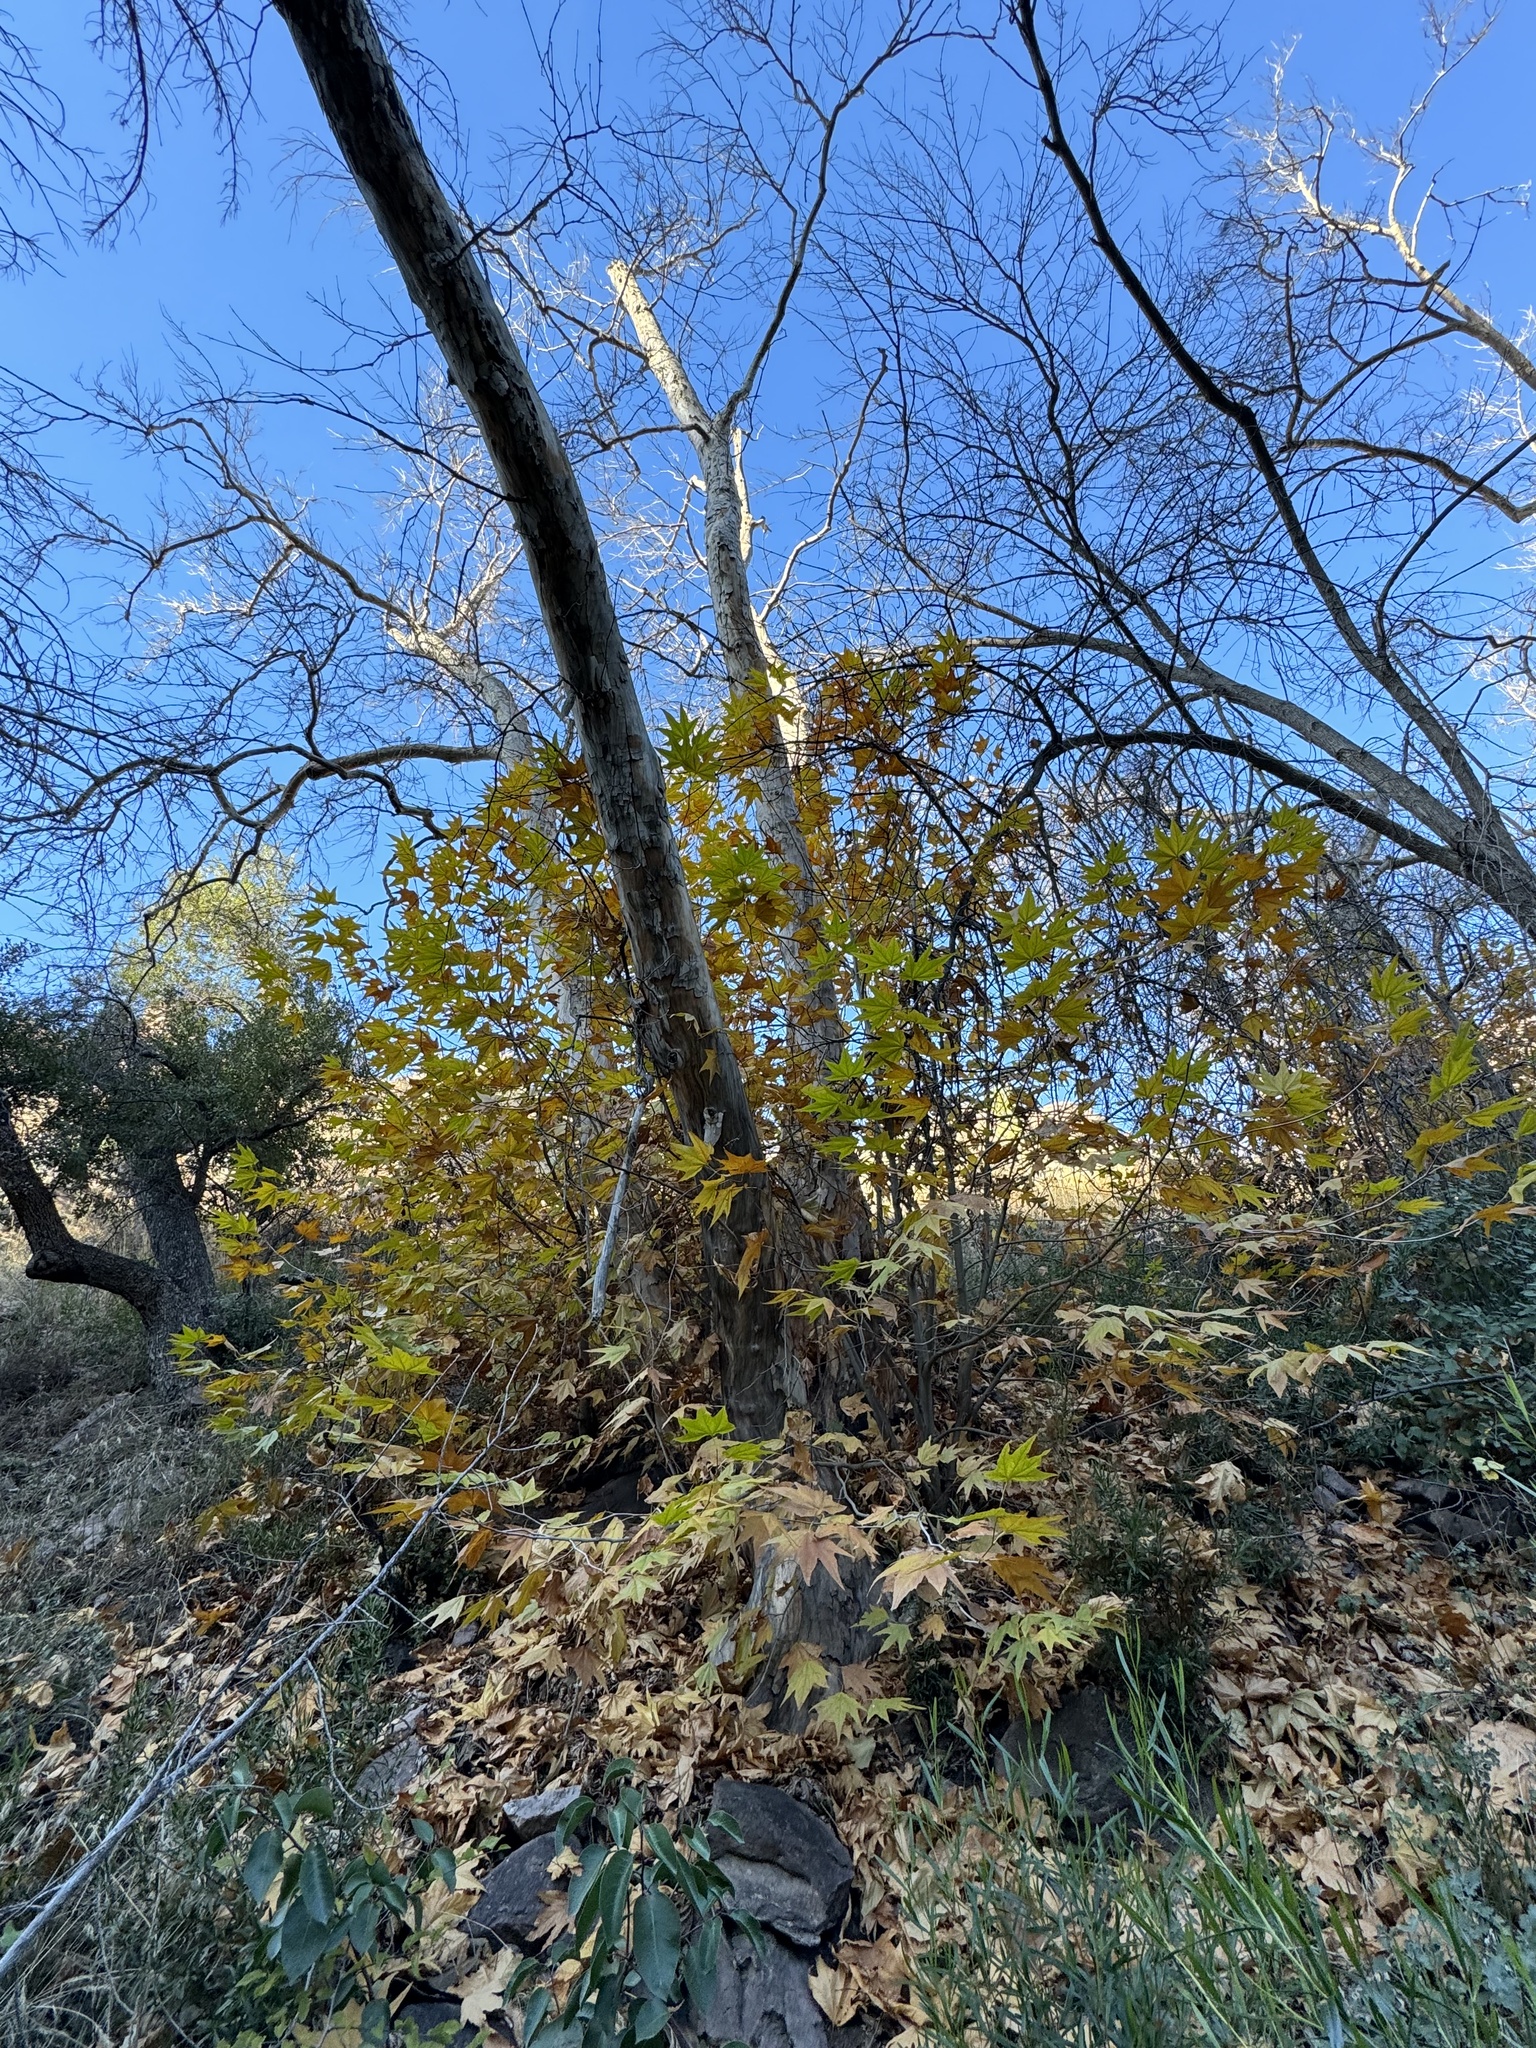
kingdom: Plantae
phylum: Tracheophyta
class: Magnoliopsida
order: Proteales
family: Platanaceae
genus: Platanus
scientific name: Platanus wrightii
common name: Arizona sycamore
